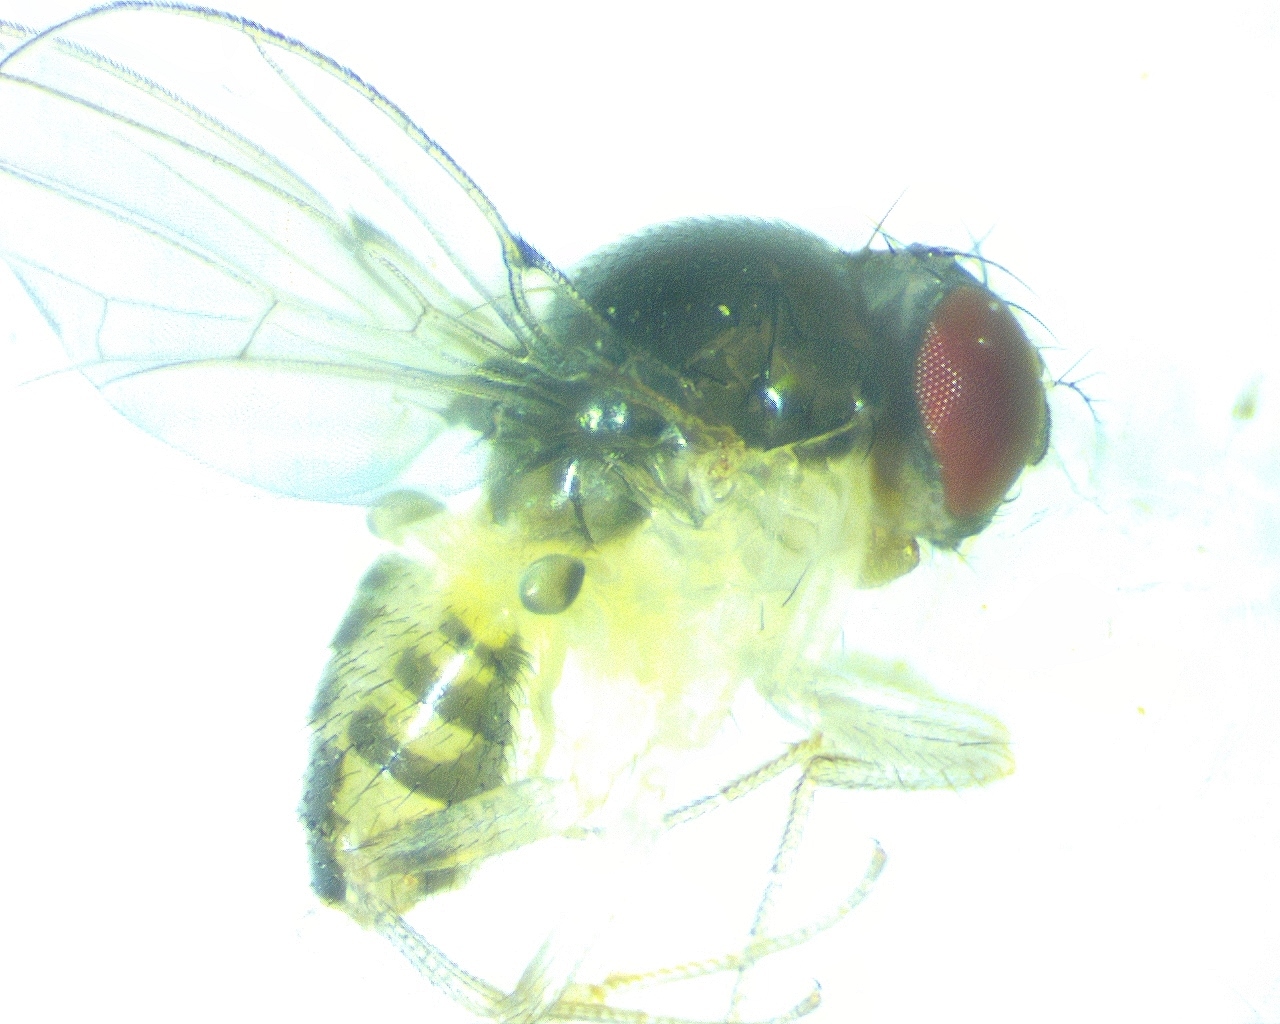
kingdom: Animalia
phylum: Arthropoda
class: Insecta
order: Diptera
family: Drosophilidae
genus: Mycodrosophila
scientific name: Mycodrosophila dimidiata
